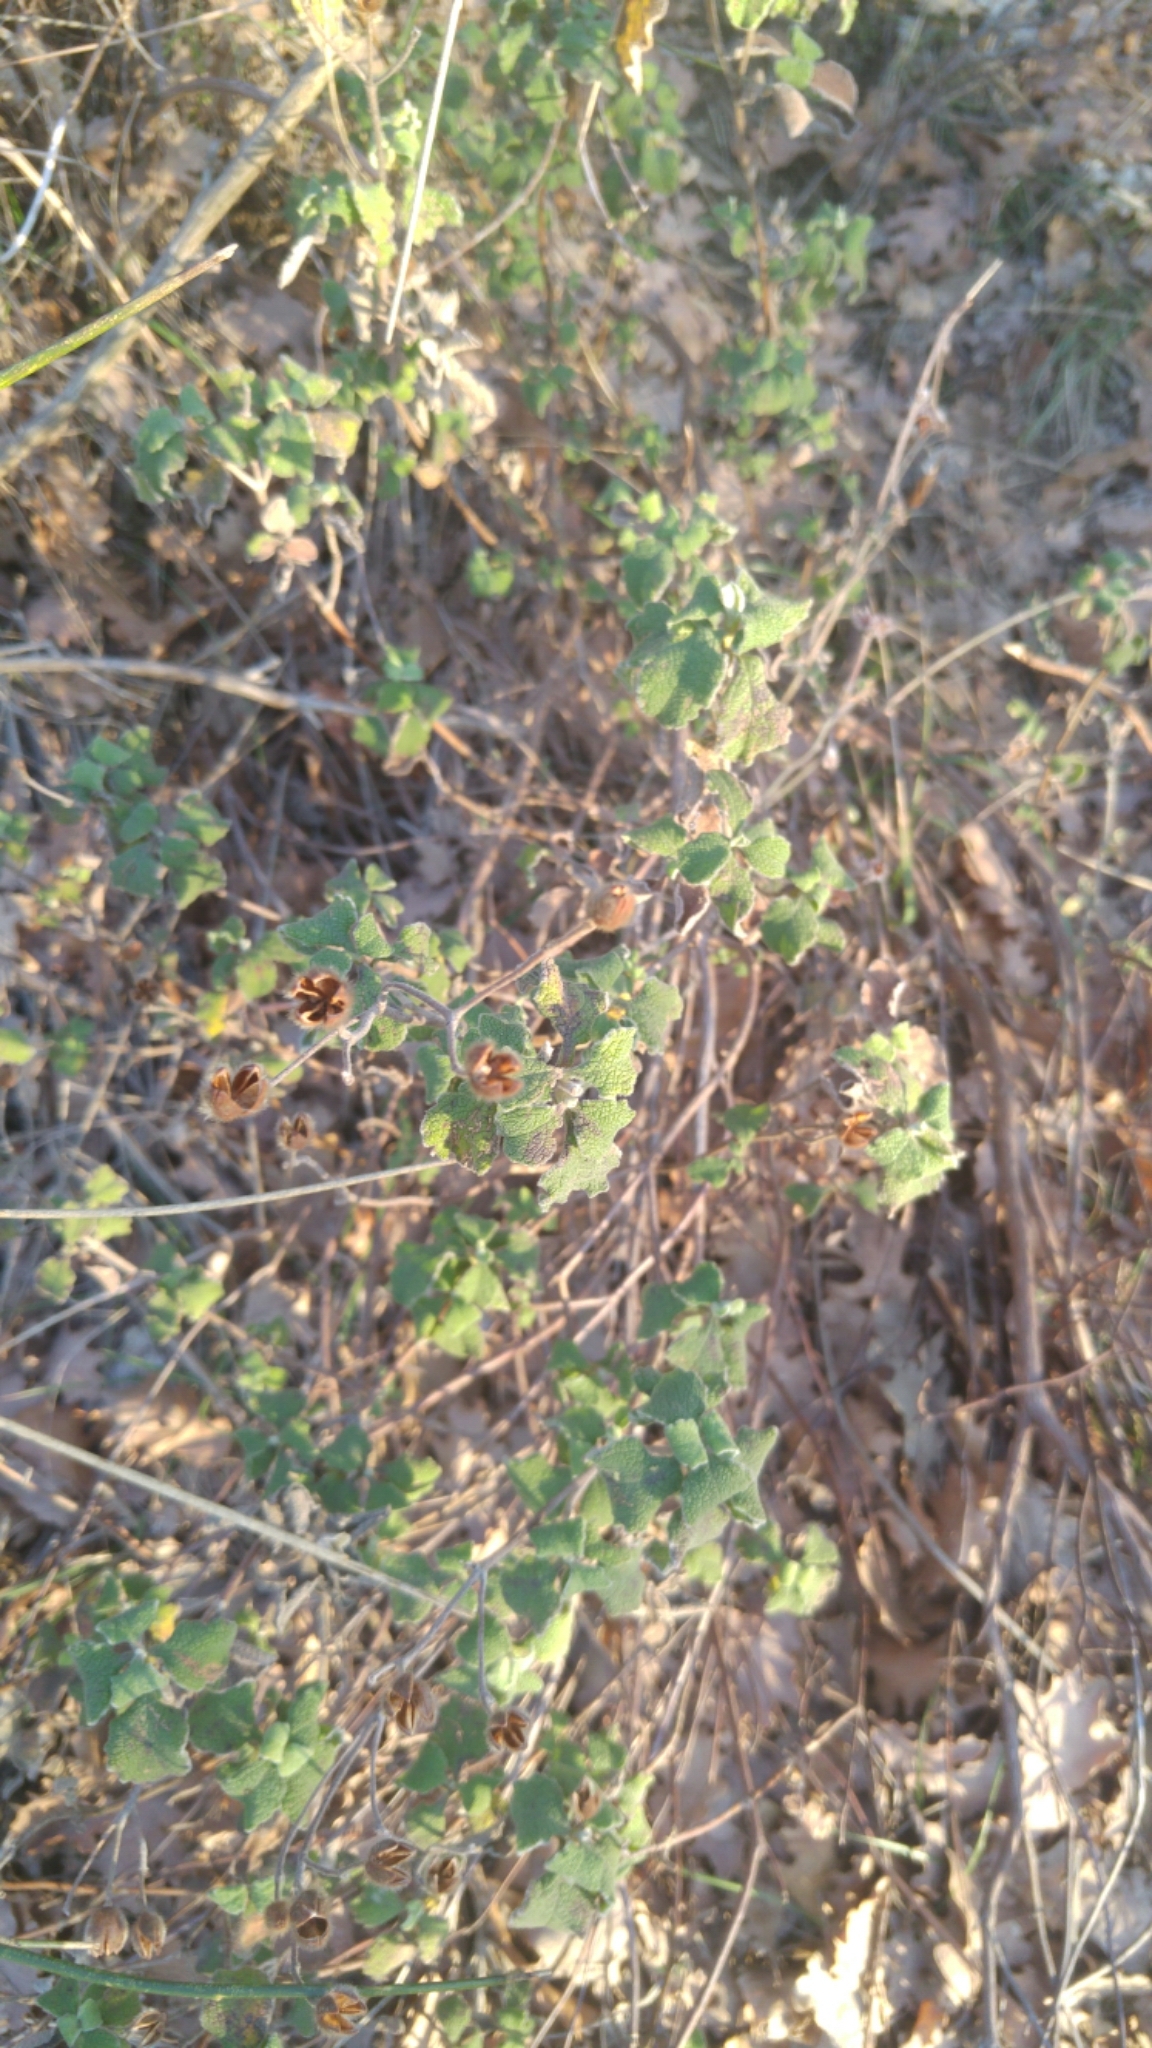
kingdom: Plantae
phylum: Tracheophyta
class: Magnoliopsida
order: Malvales
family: Cistaceae
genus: Cistus
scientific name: Cistus tauricus
